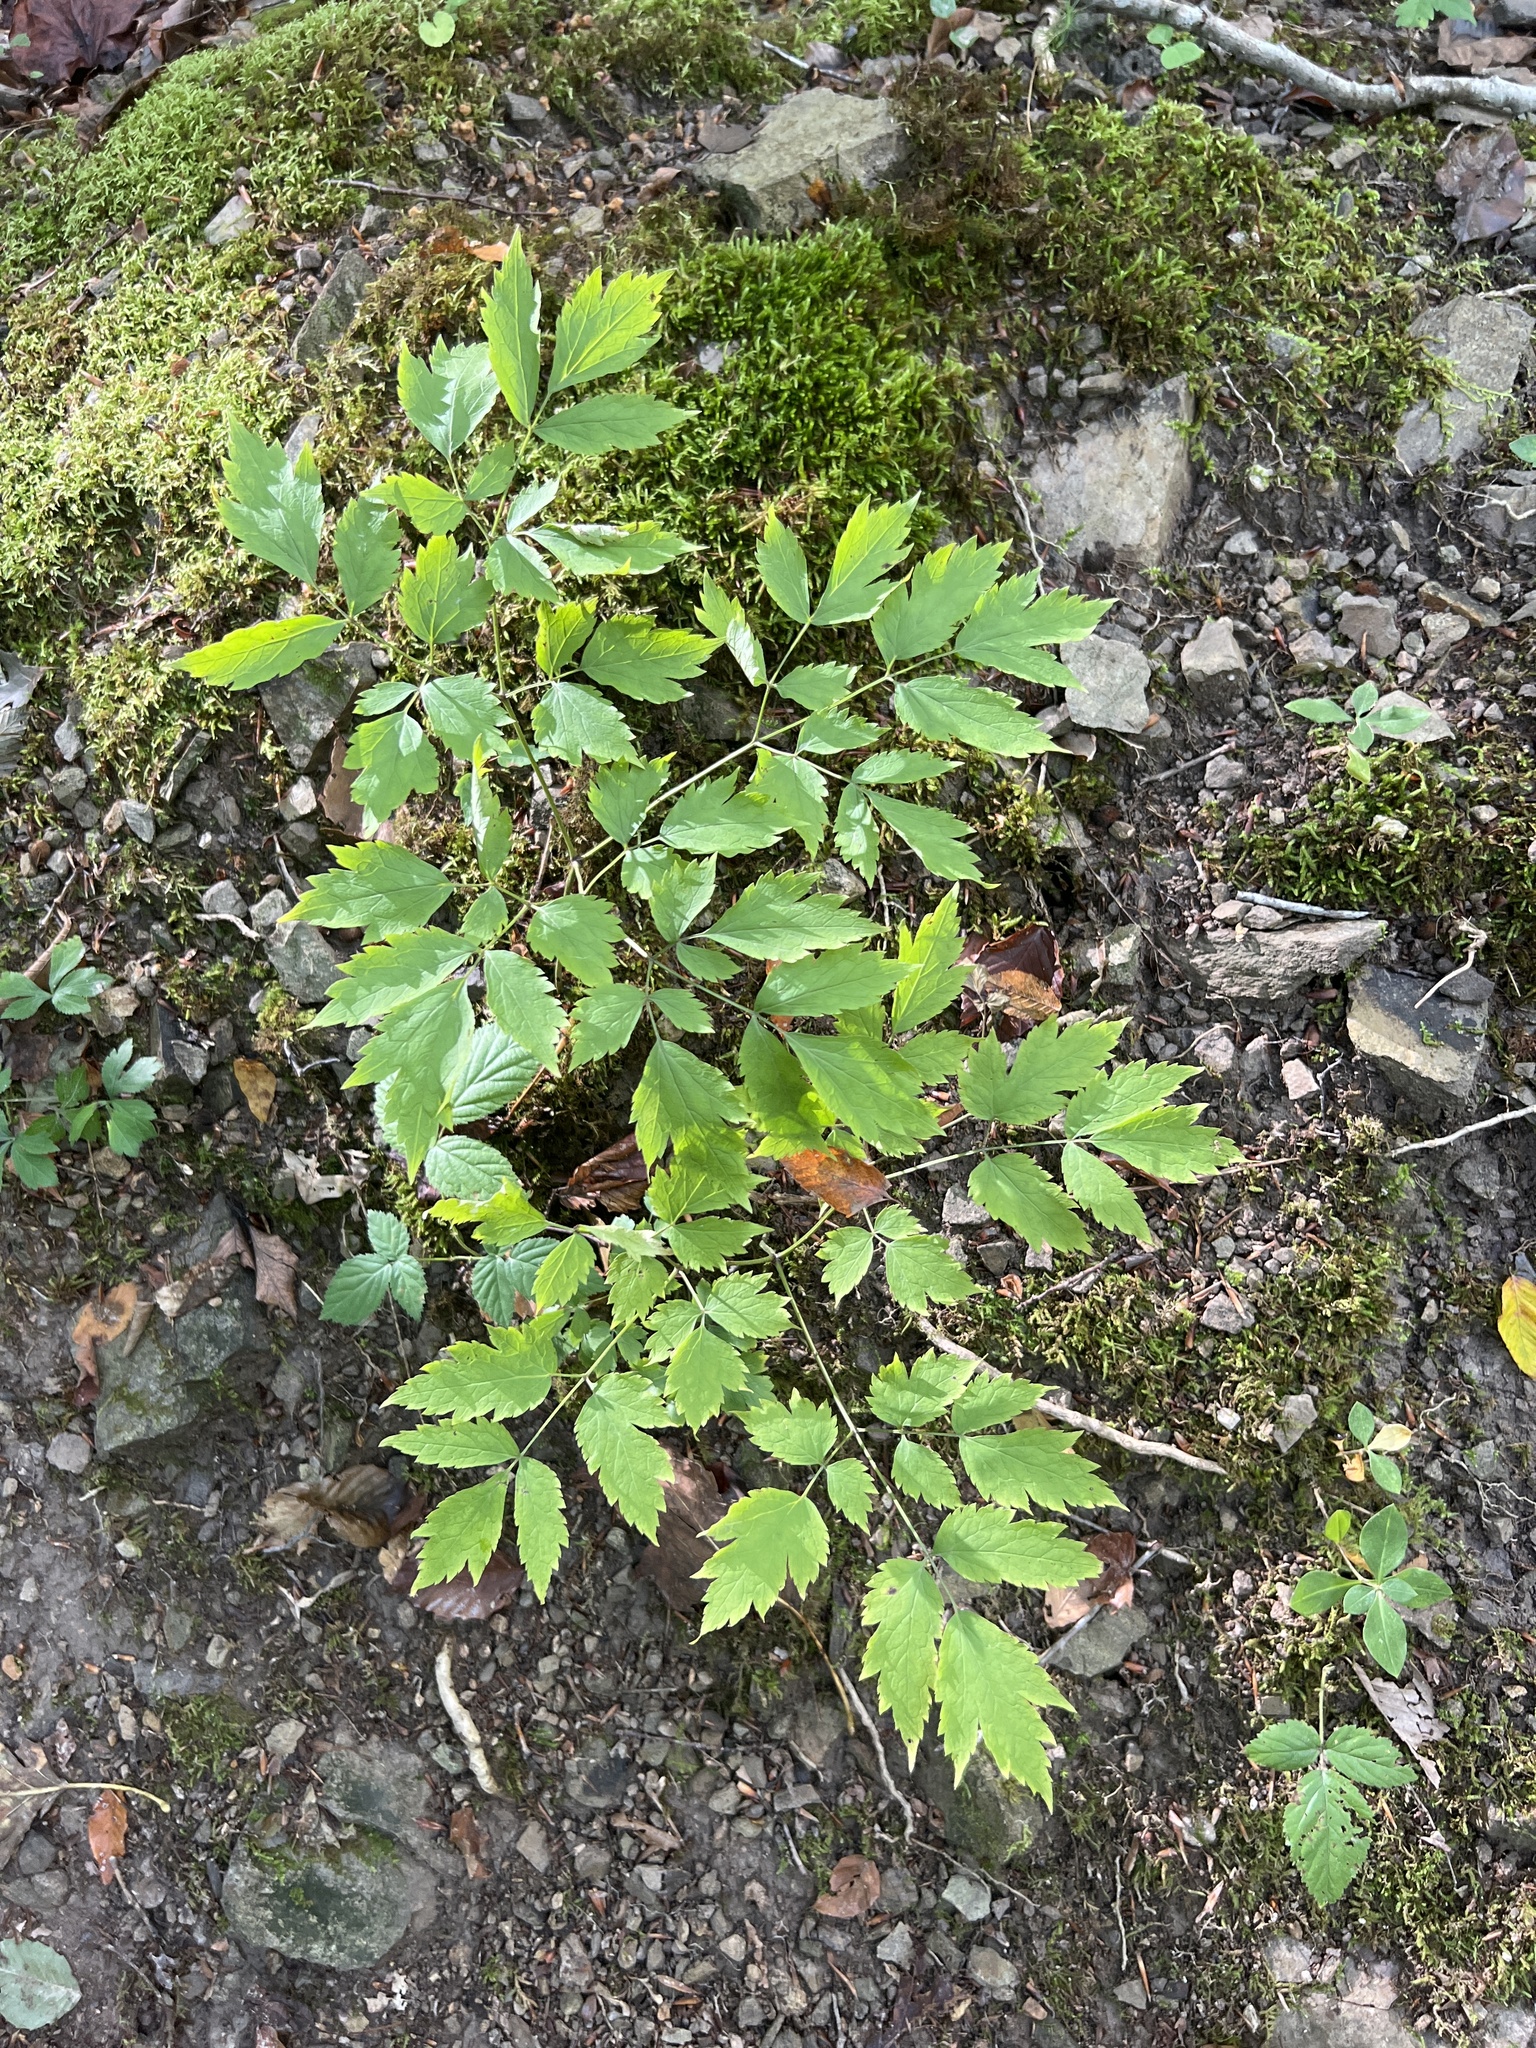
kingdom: Plantae
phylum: Tracheophyta
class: Magnoliopsida
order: Ranunculales
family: Ranunculaceae
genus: Actaea
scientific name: Actaea racemosa
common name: Black cohosh
